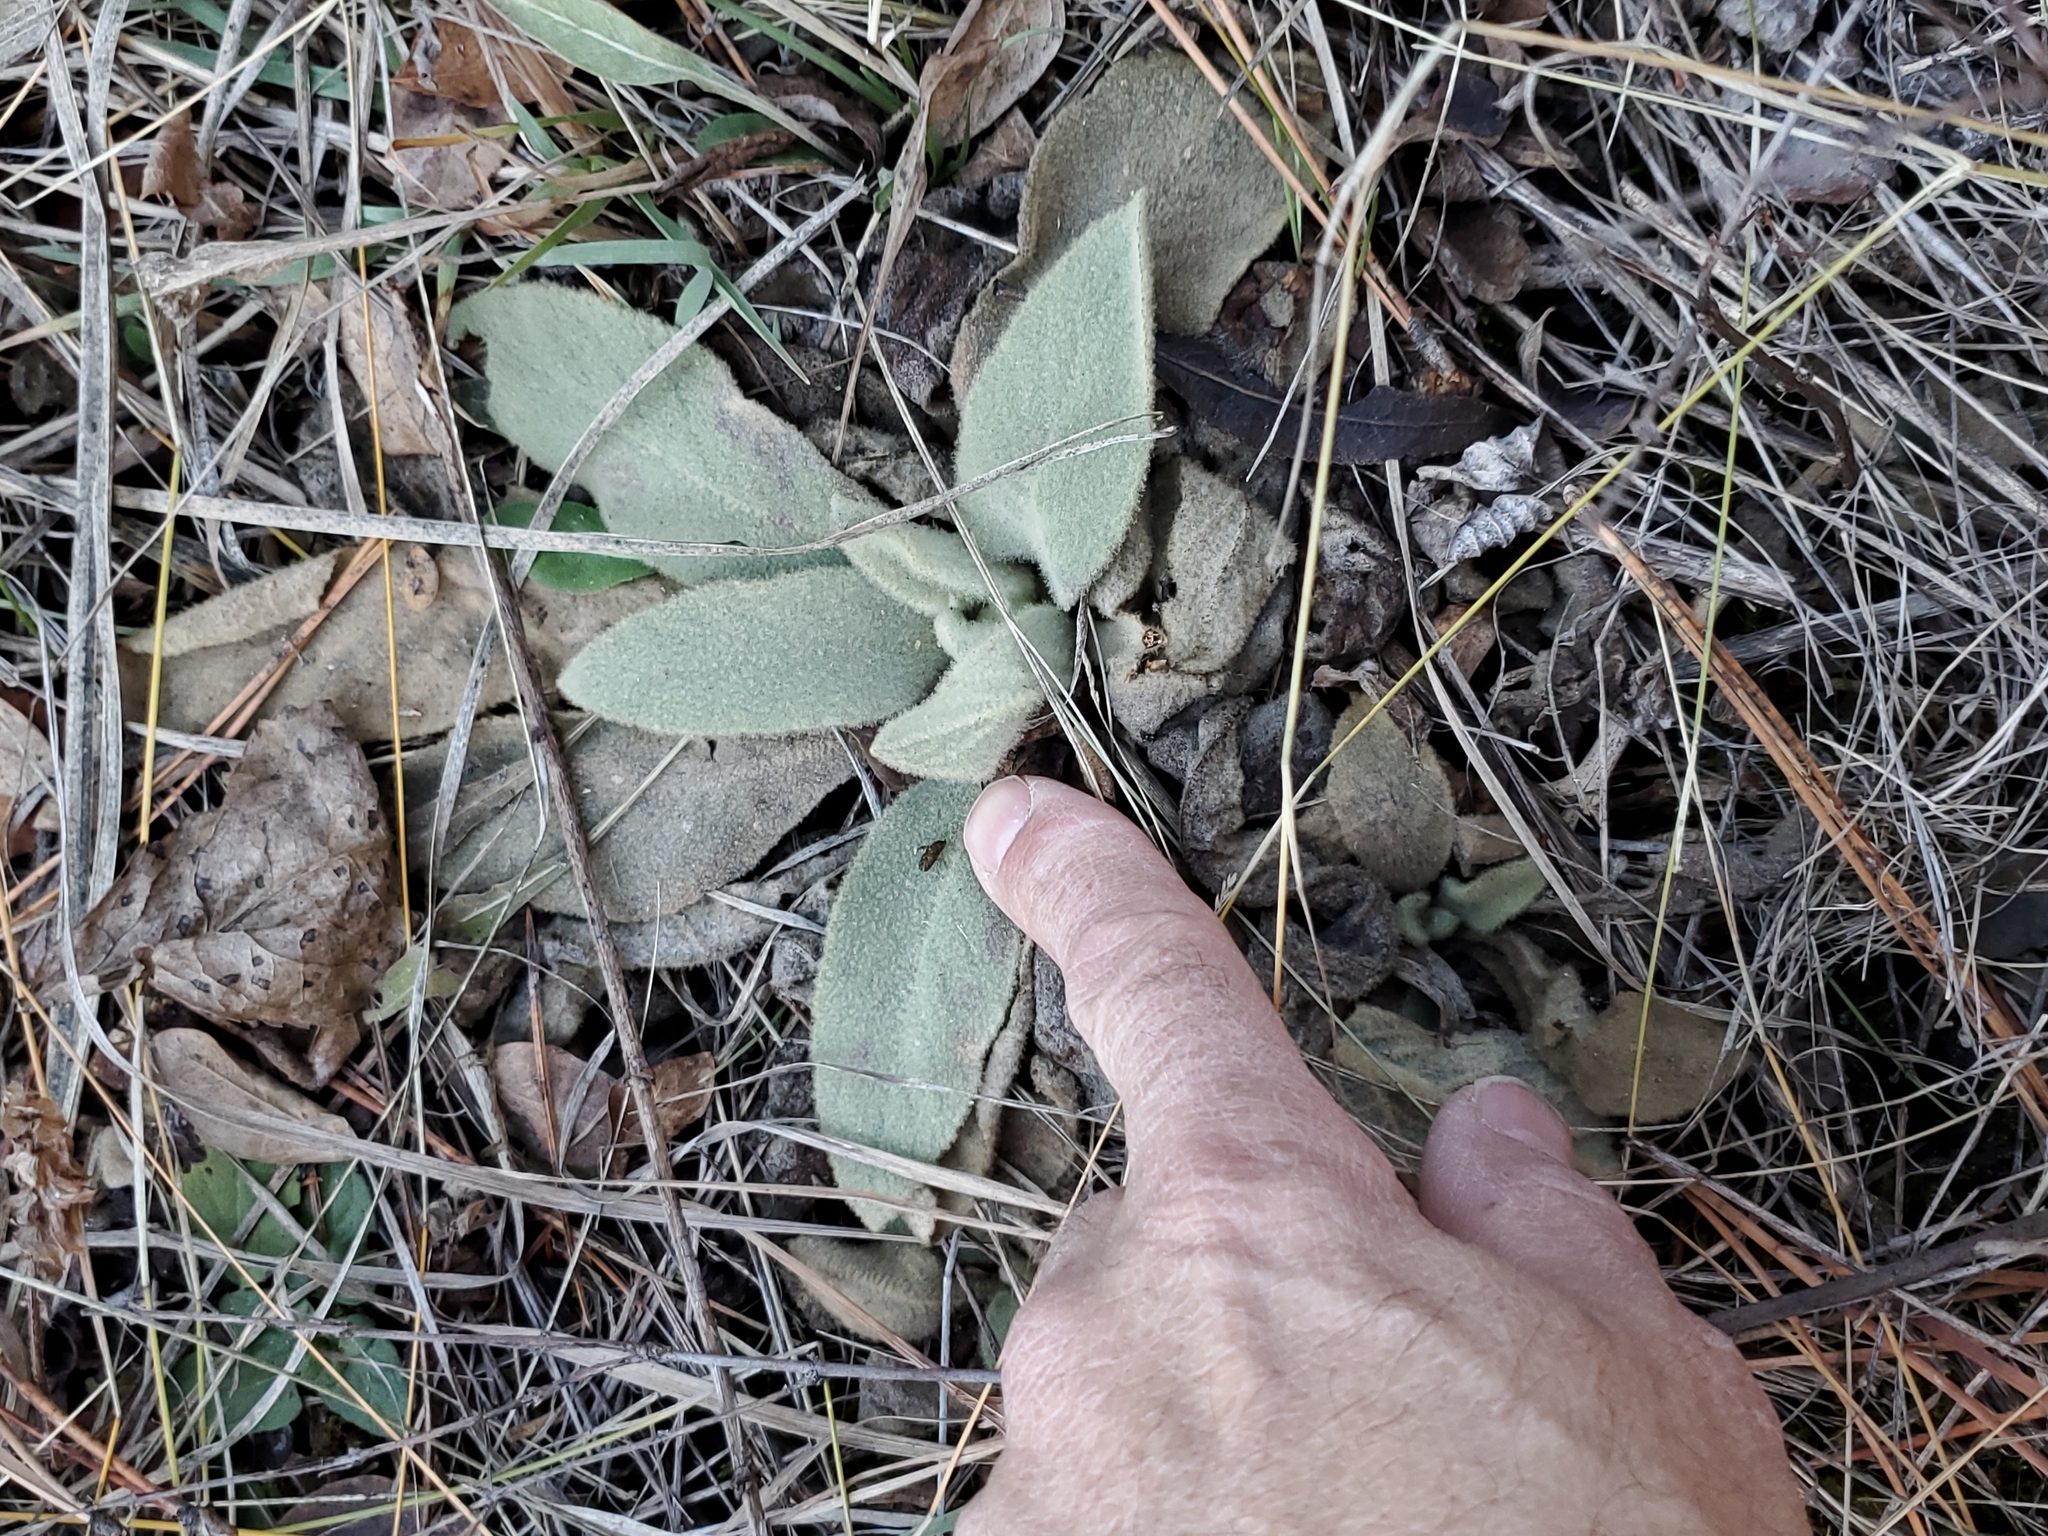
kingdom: Plantae
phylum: Tracheophyta
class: Magnoliopsida
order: Lamiales
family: Scrophulariaceae
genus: Verbascum
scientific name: Verbascum thapsus
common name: Common mullein
